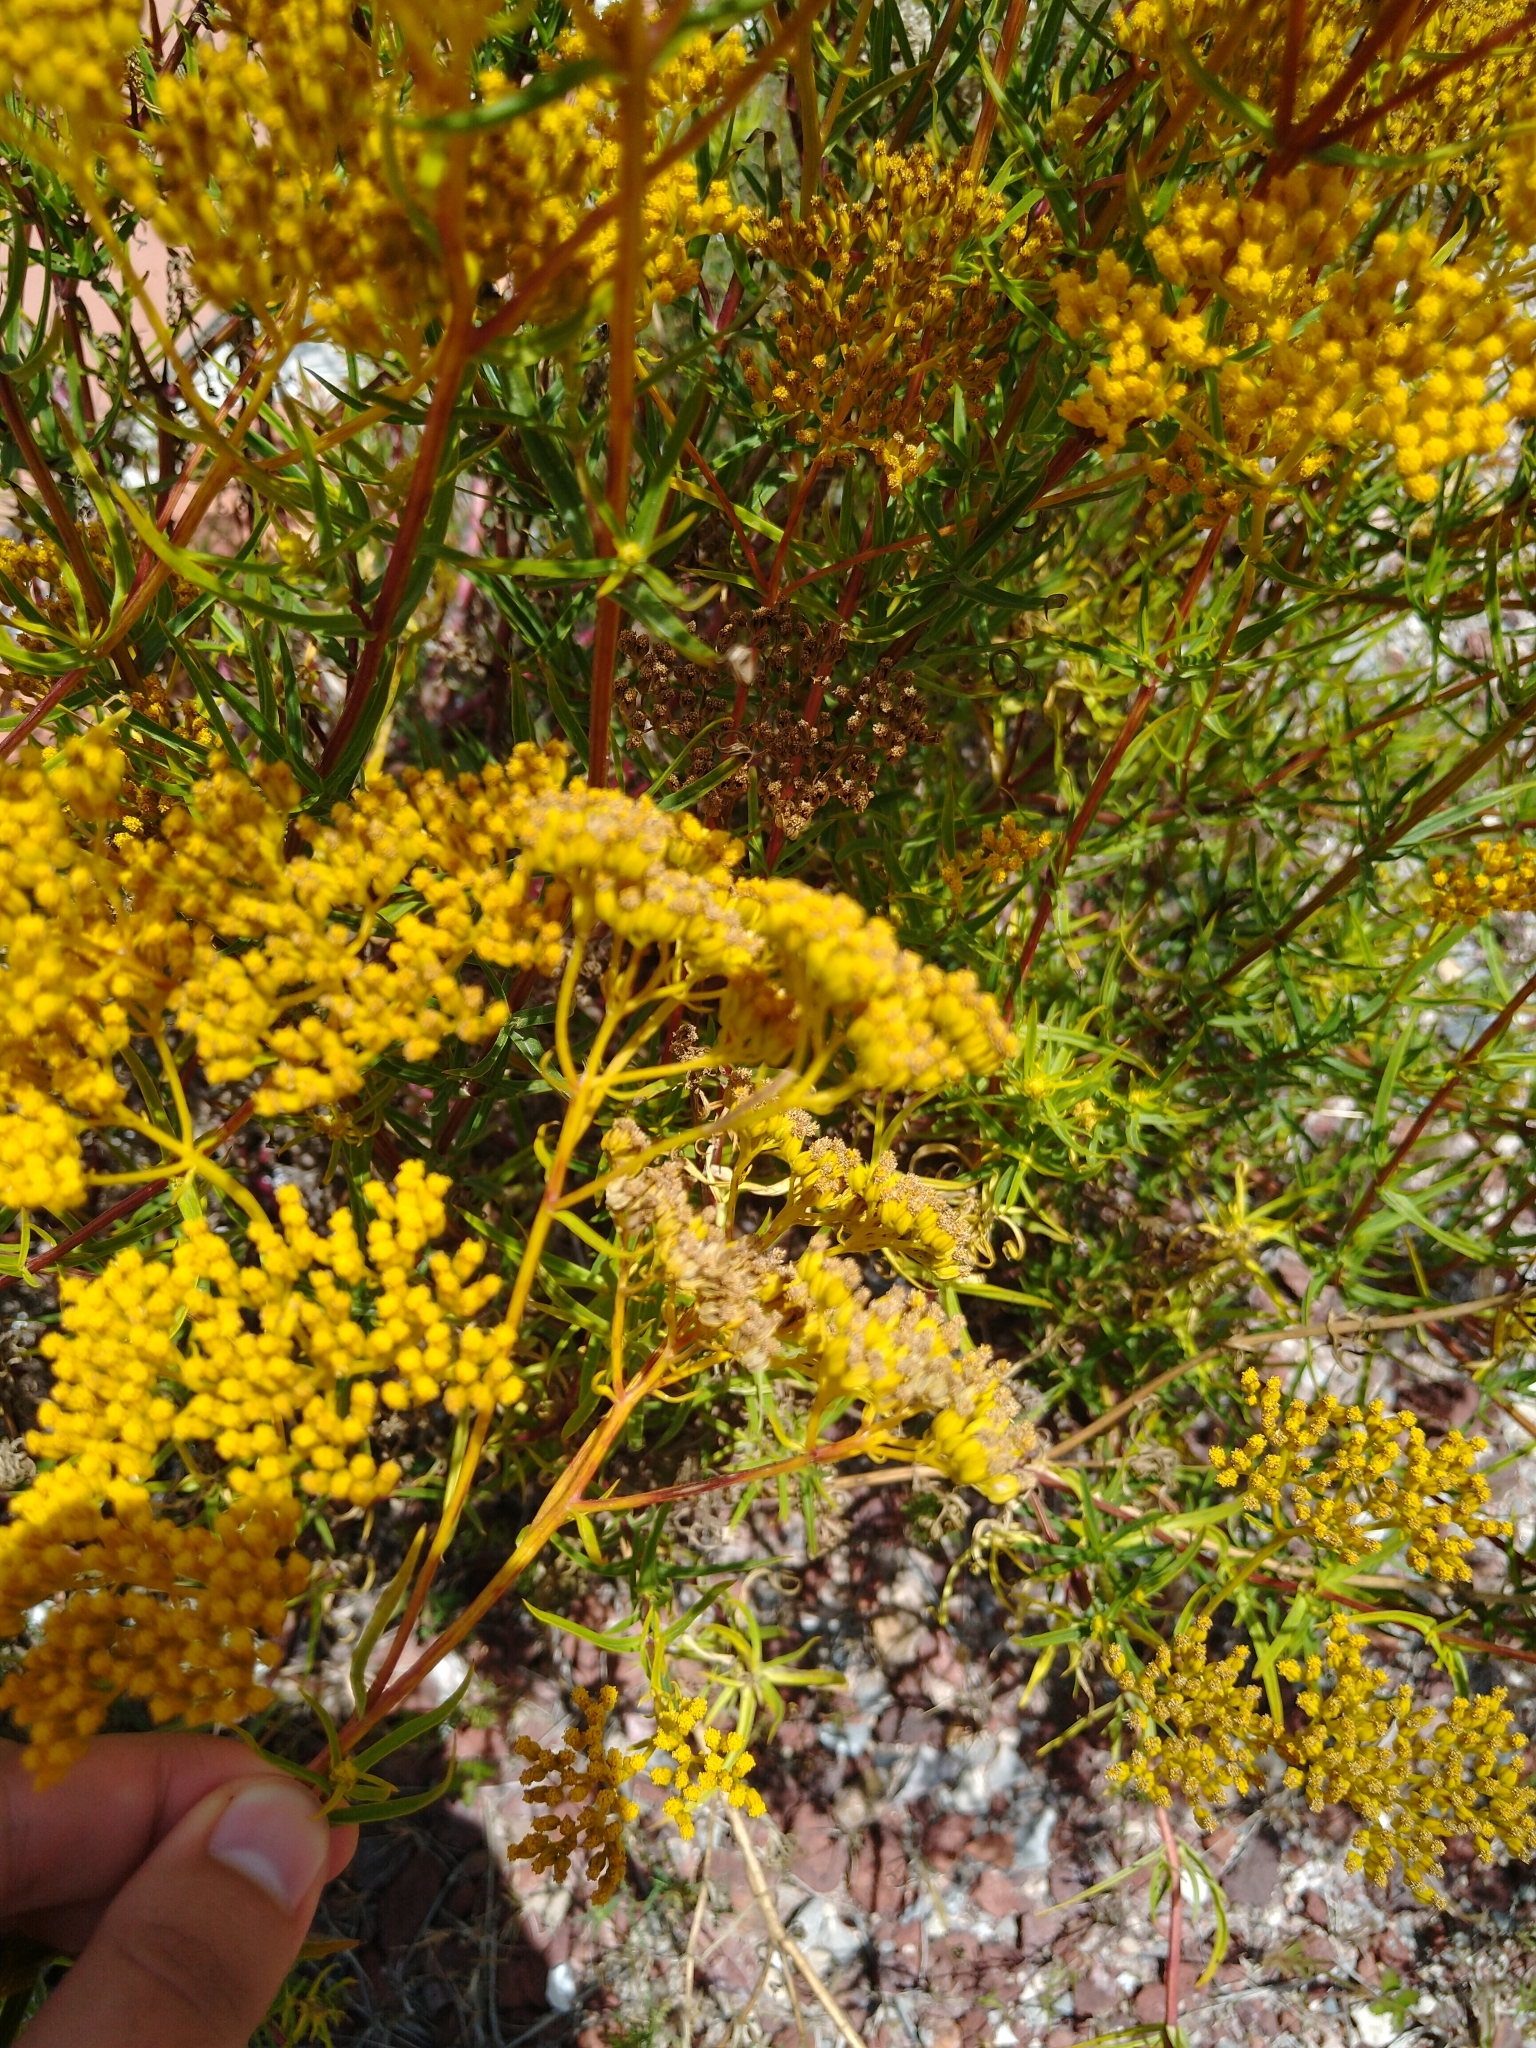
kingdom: Plantae
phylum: Tracheophyta
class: Magnoliopsida
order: Asterales
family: Asteraceae
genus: Flaveria
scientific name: Flaveria oppositifolia
